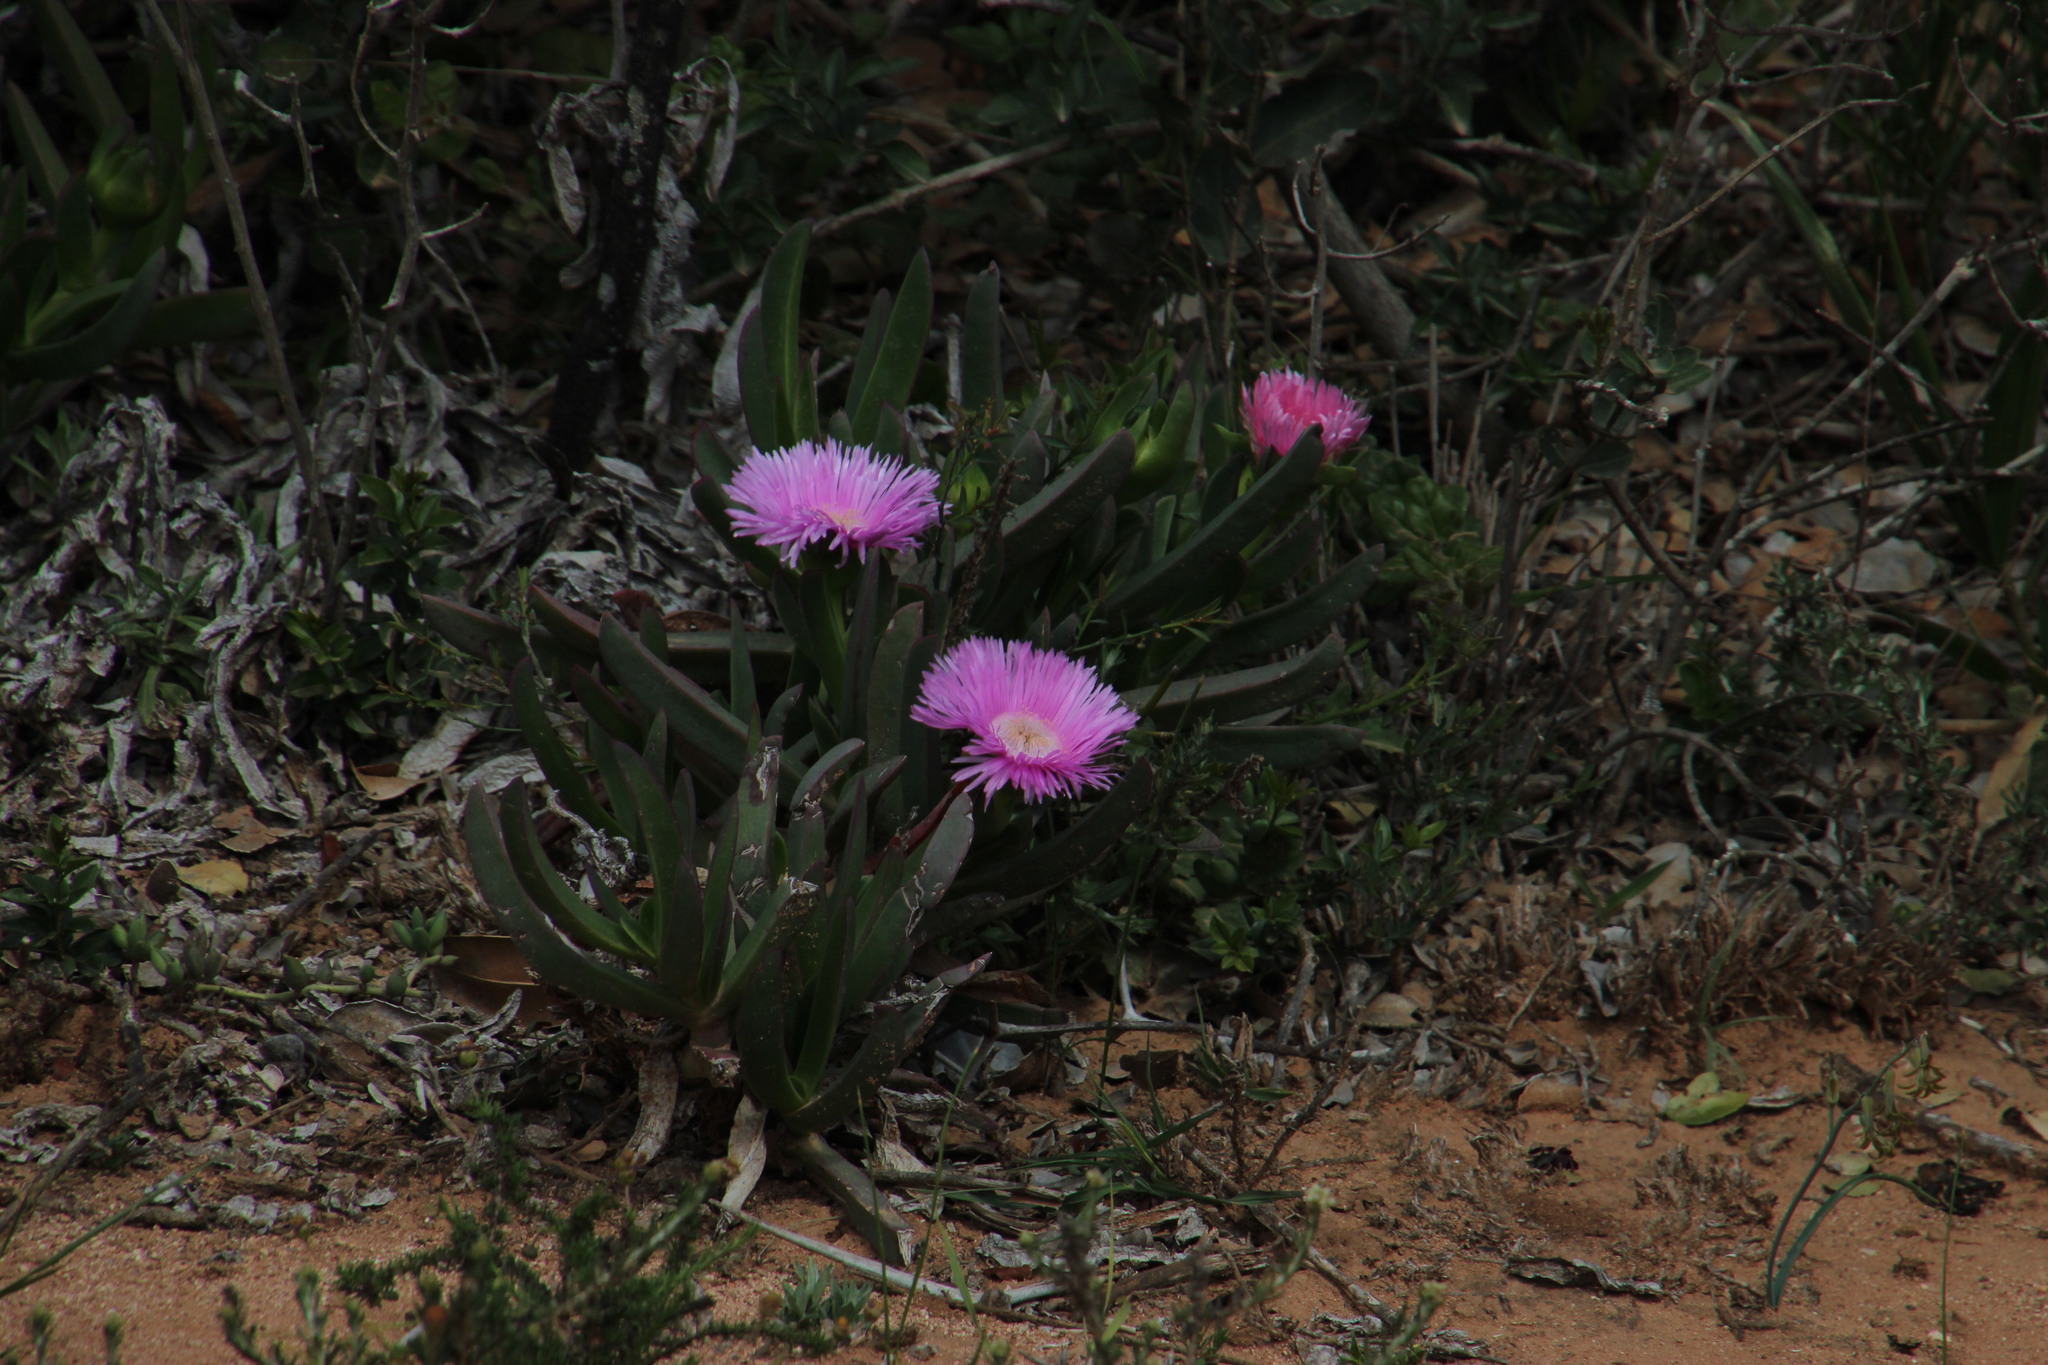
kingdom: Plantae
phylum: Tracheophyta
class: Magnoliopsida
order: Caryophyllales
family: Aizoaceae
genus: Carpobrotus
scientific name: Carpobrotus deliciosus
